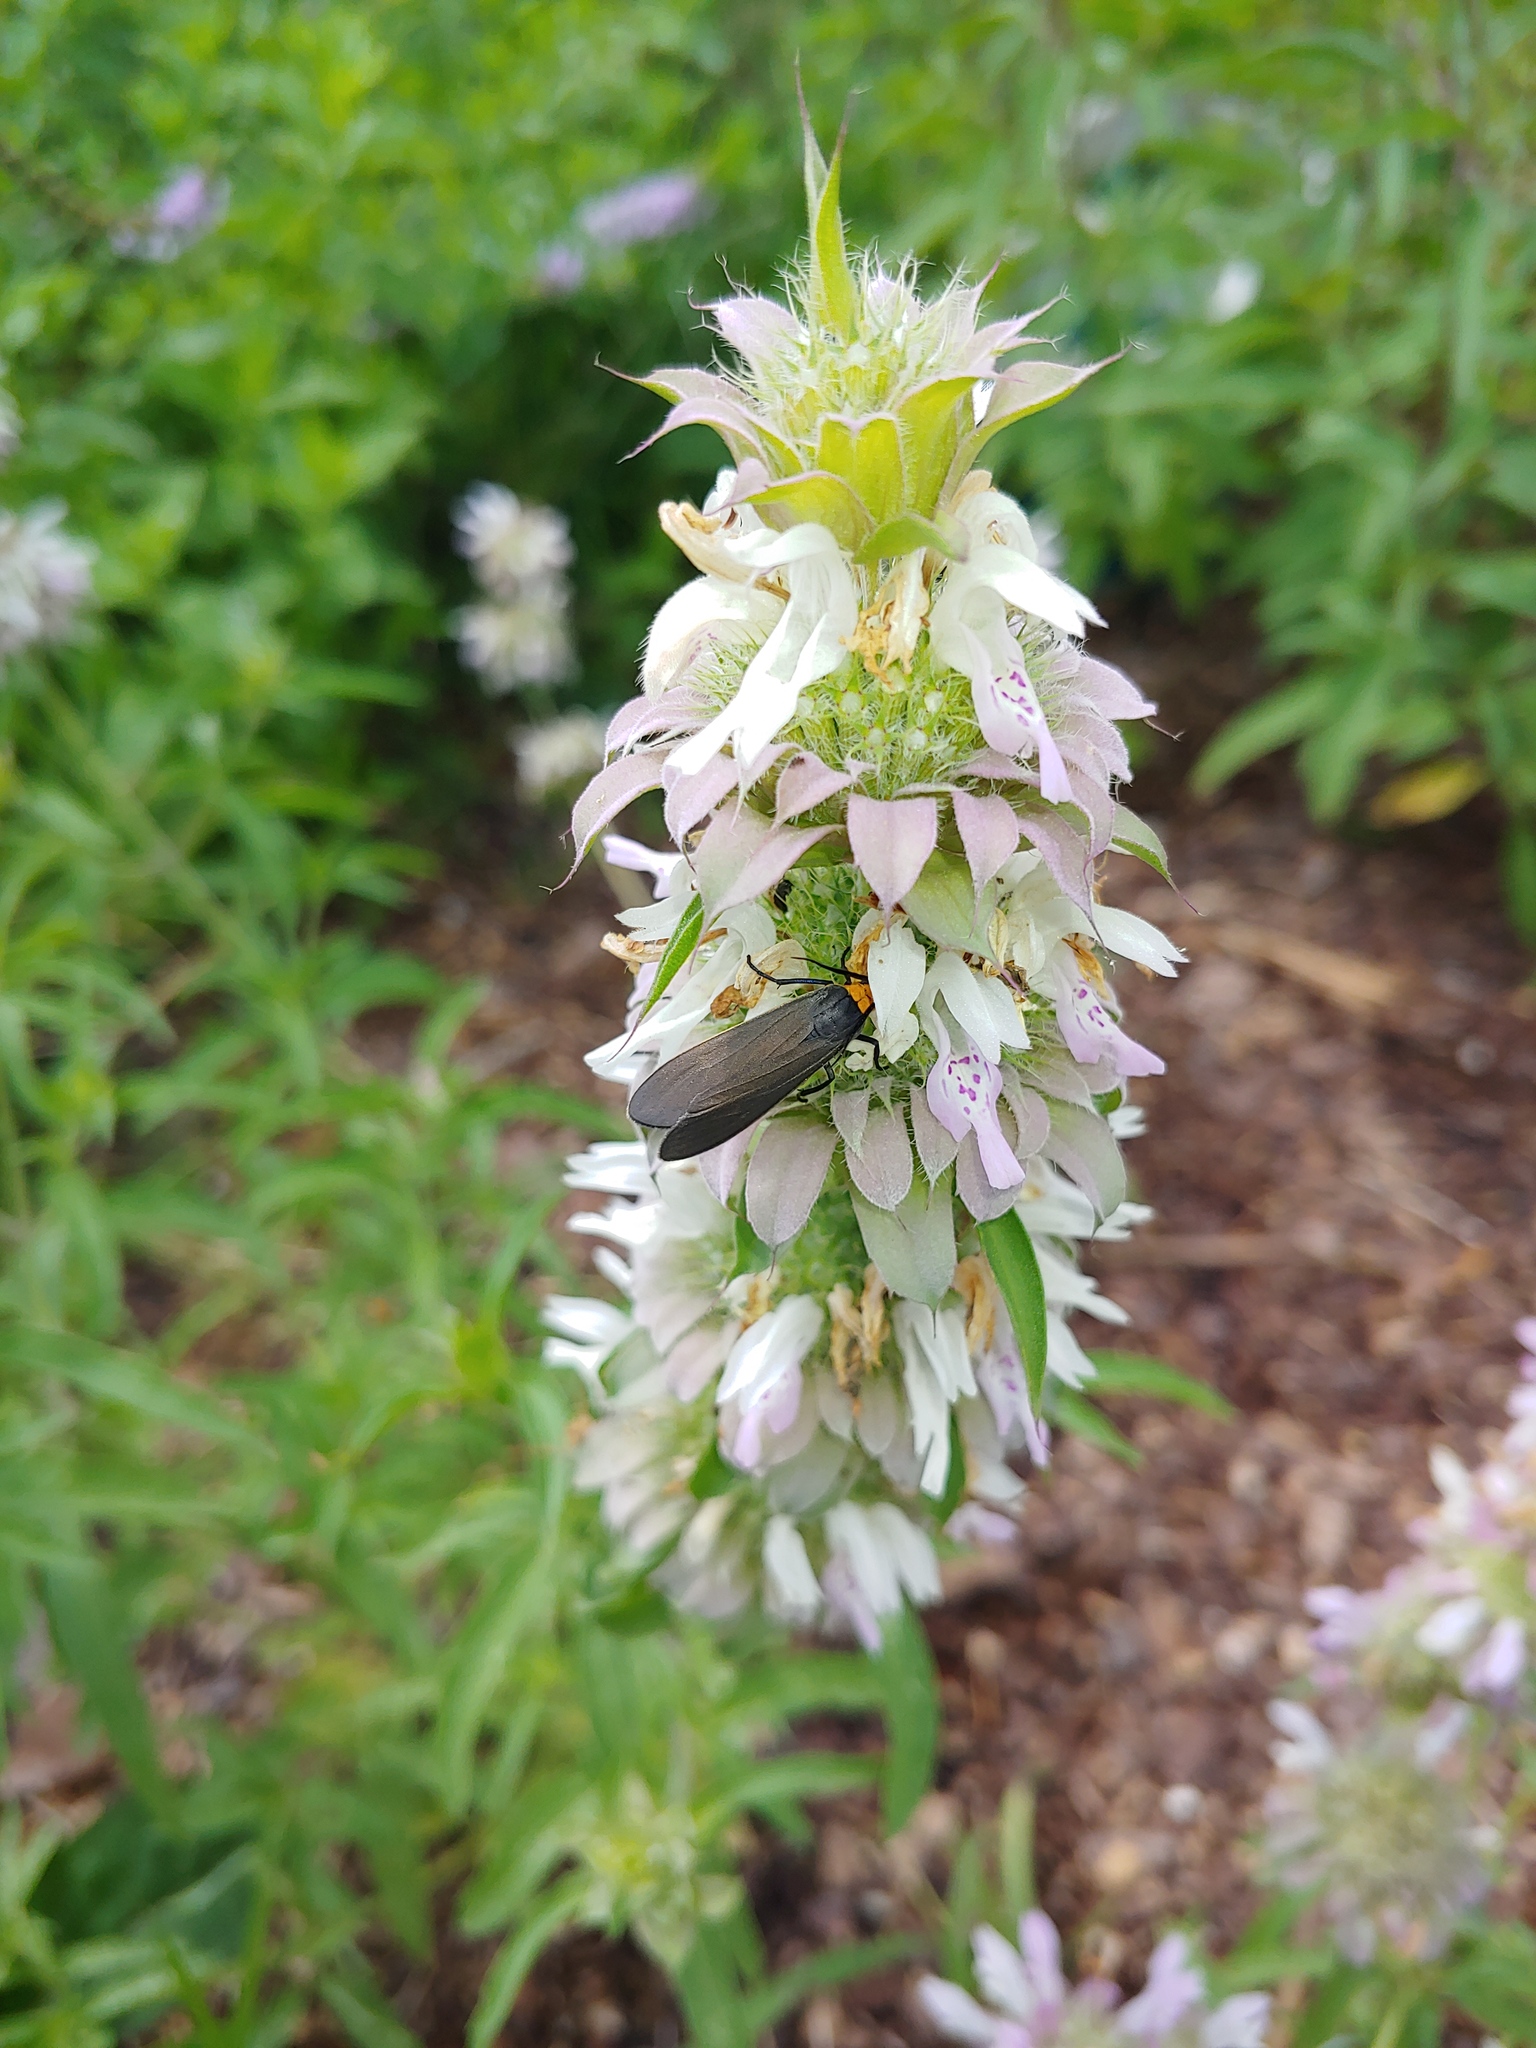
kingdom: Animalia
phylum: Arthropoda
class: Insecta
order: Lepidoptera
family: Erebidae
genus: Cisseps
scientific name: Cisseps fulvicollis
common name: Yellow-collared scape moth
